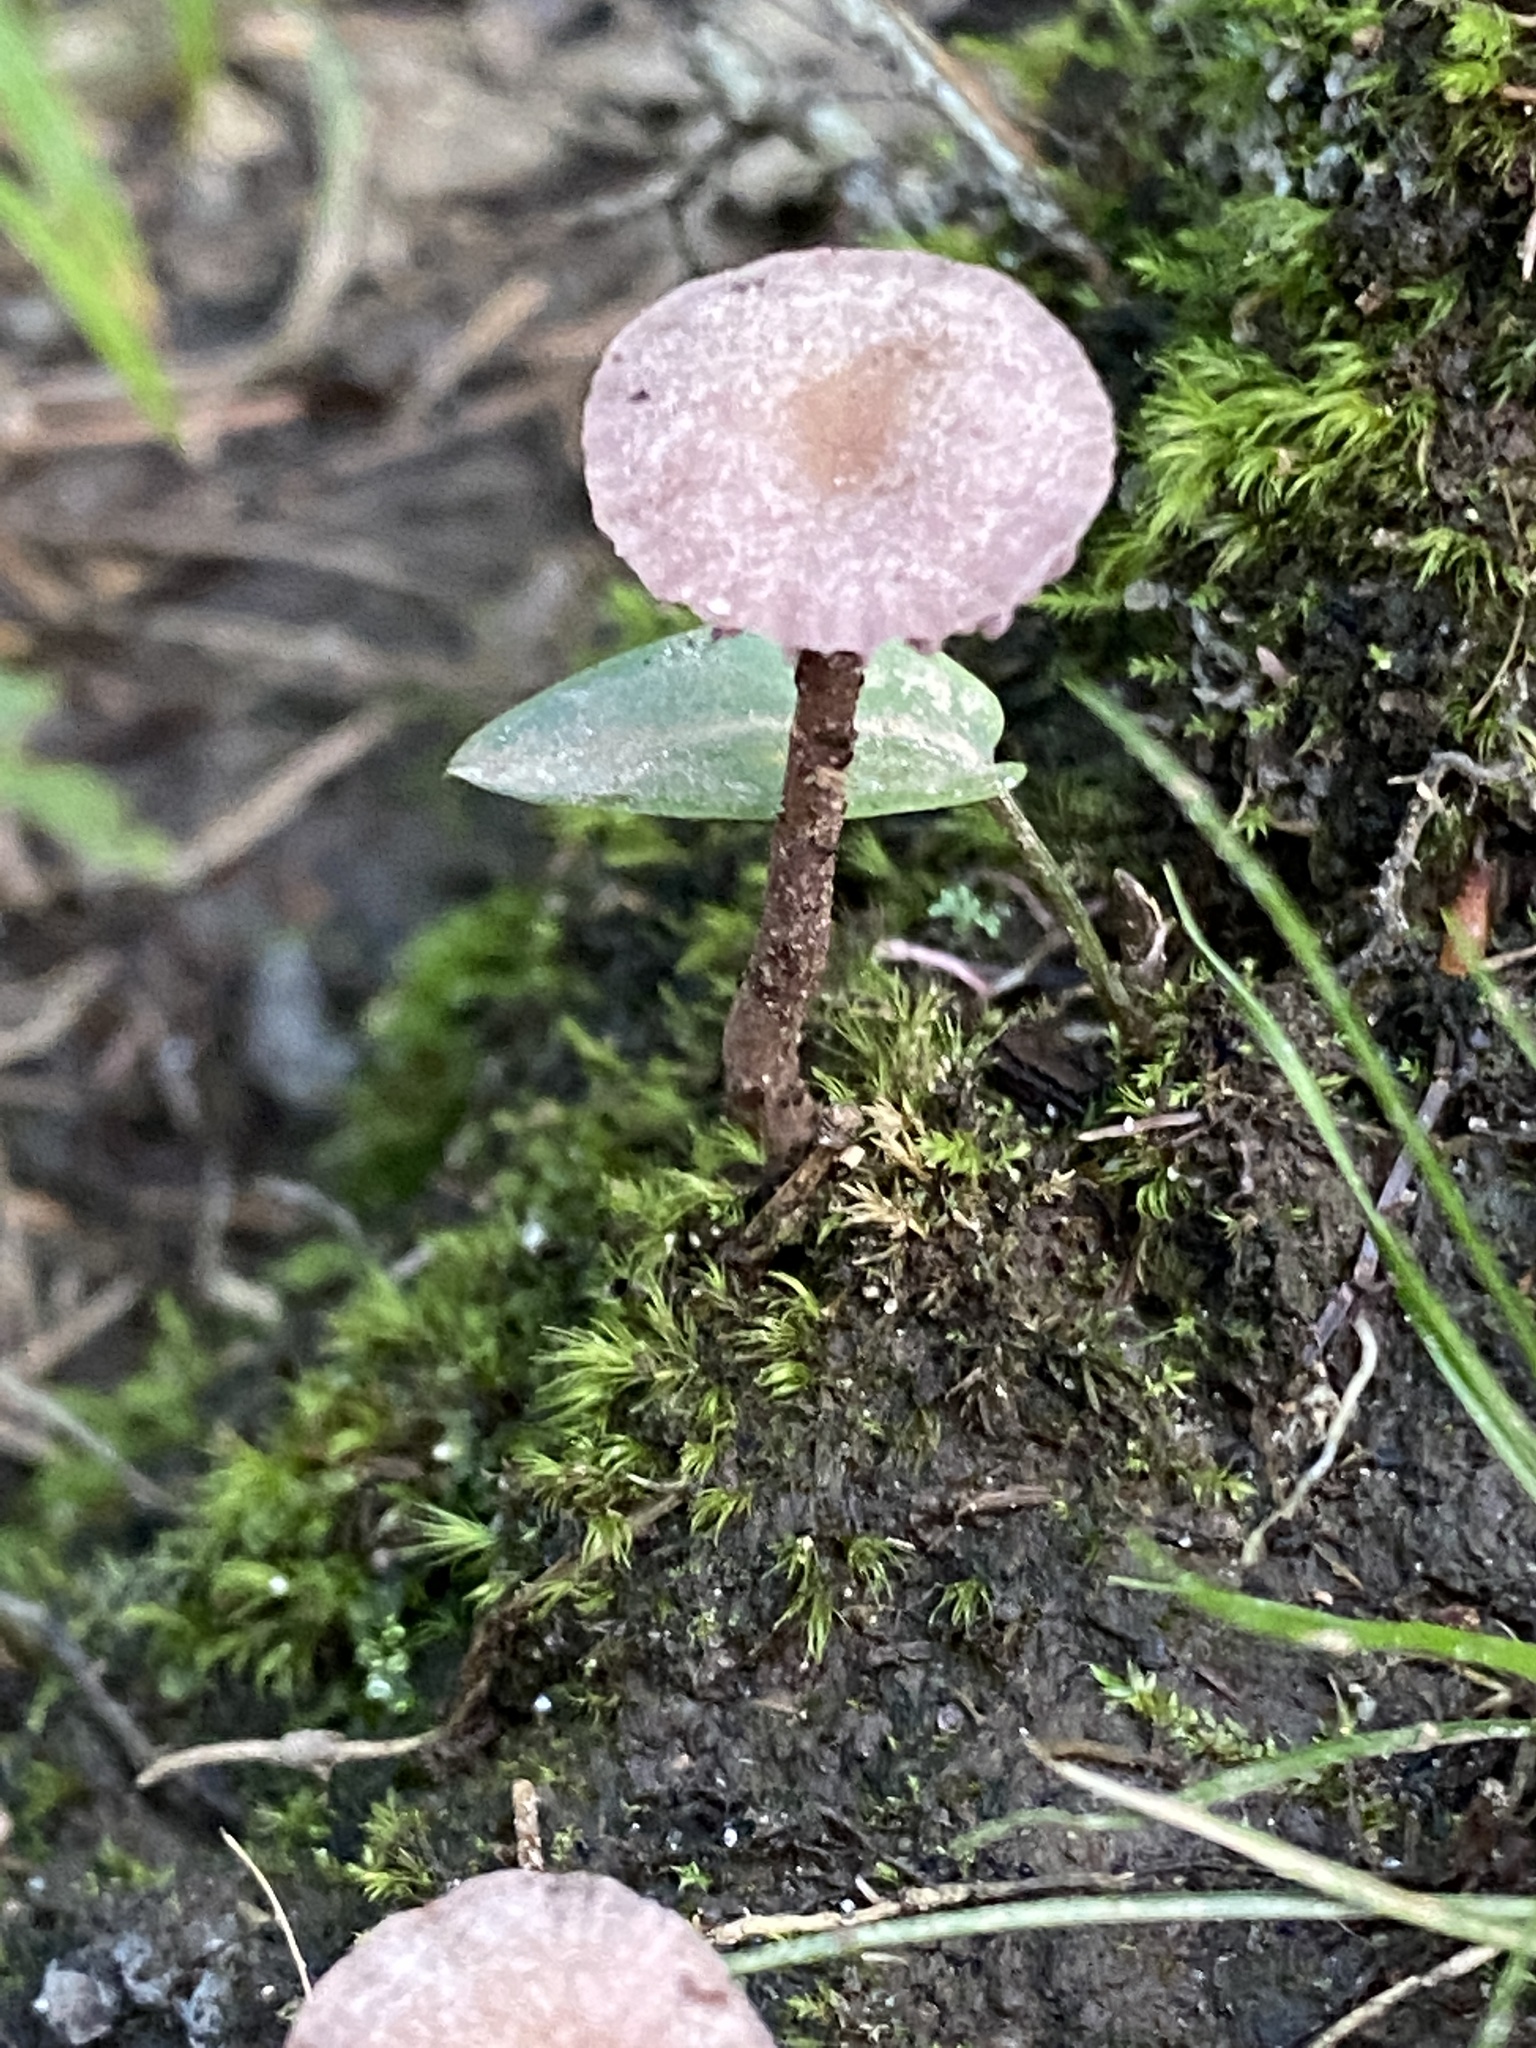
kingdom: Fungi
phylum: Basidiomycota
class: Agaricomycetes
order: Agaricales
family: Hydnangiaceae
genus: Laccaria
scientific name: Laccaria amethystina
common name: Amethyst deceiver
